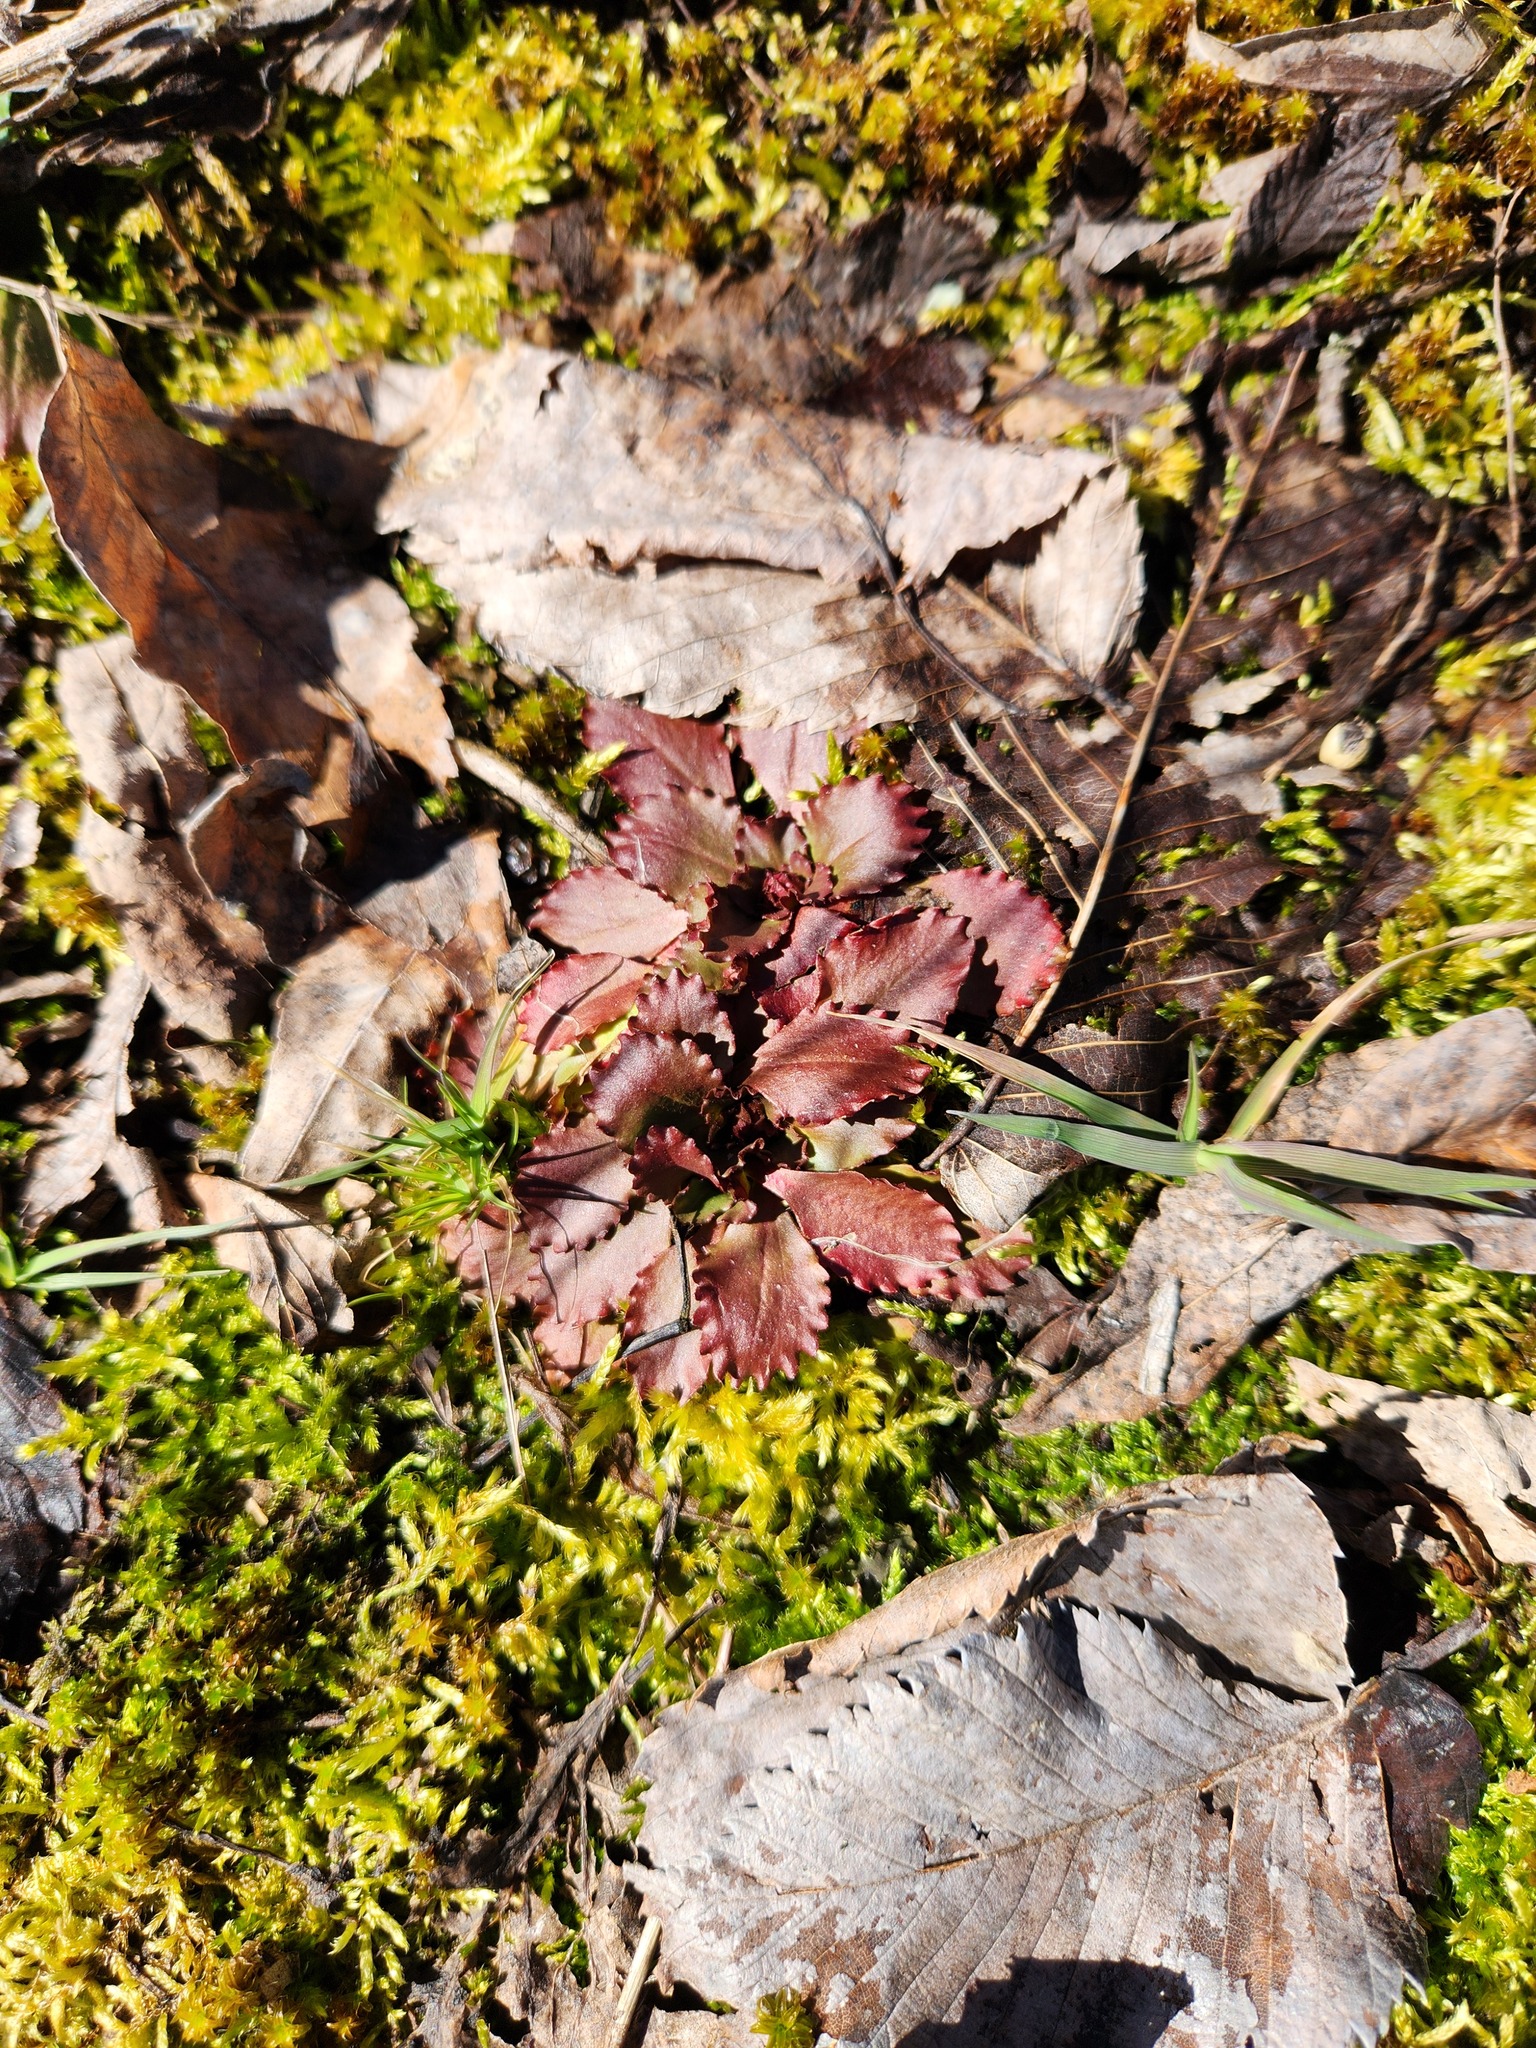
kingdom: Plantae
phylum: Tracheophyta
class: Magnoliopsida
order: Saxifragales
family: Saxifragaceae
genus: Micranthes
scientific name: Micranthes virginiensis
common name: Early saxifrage
